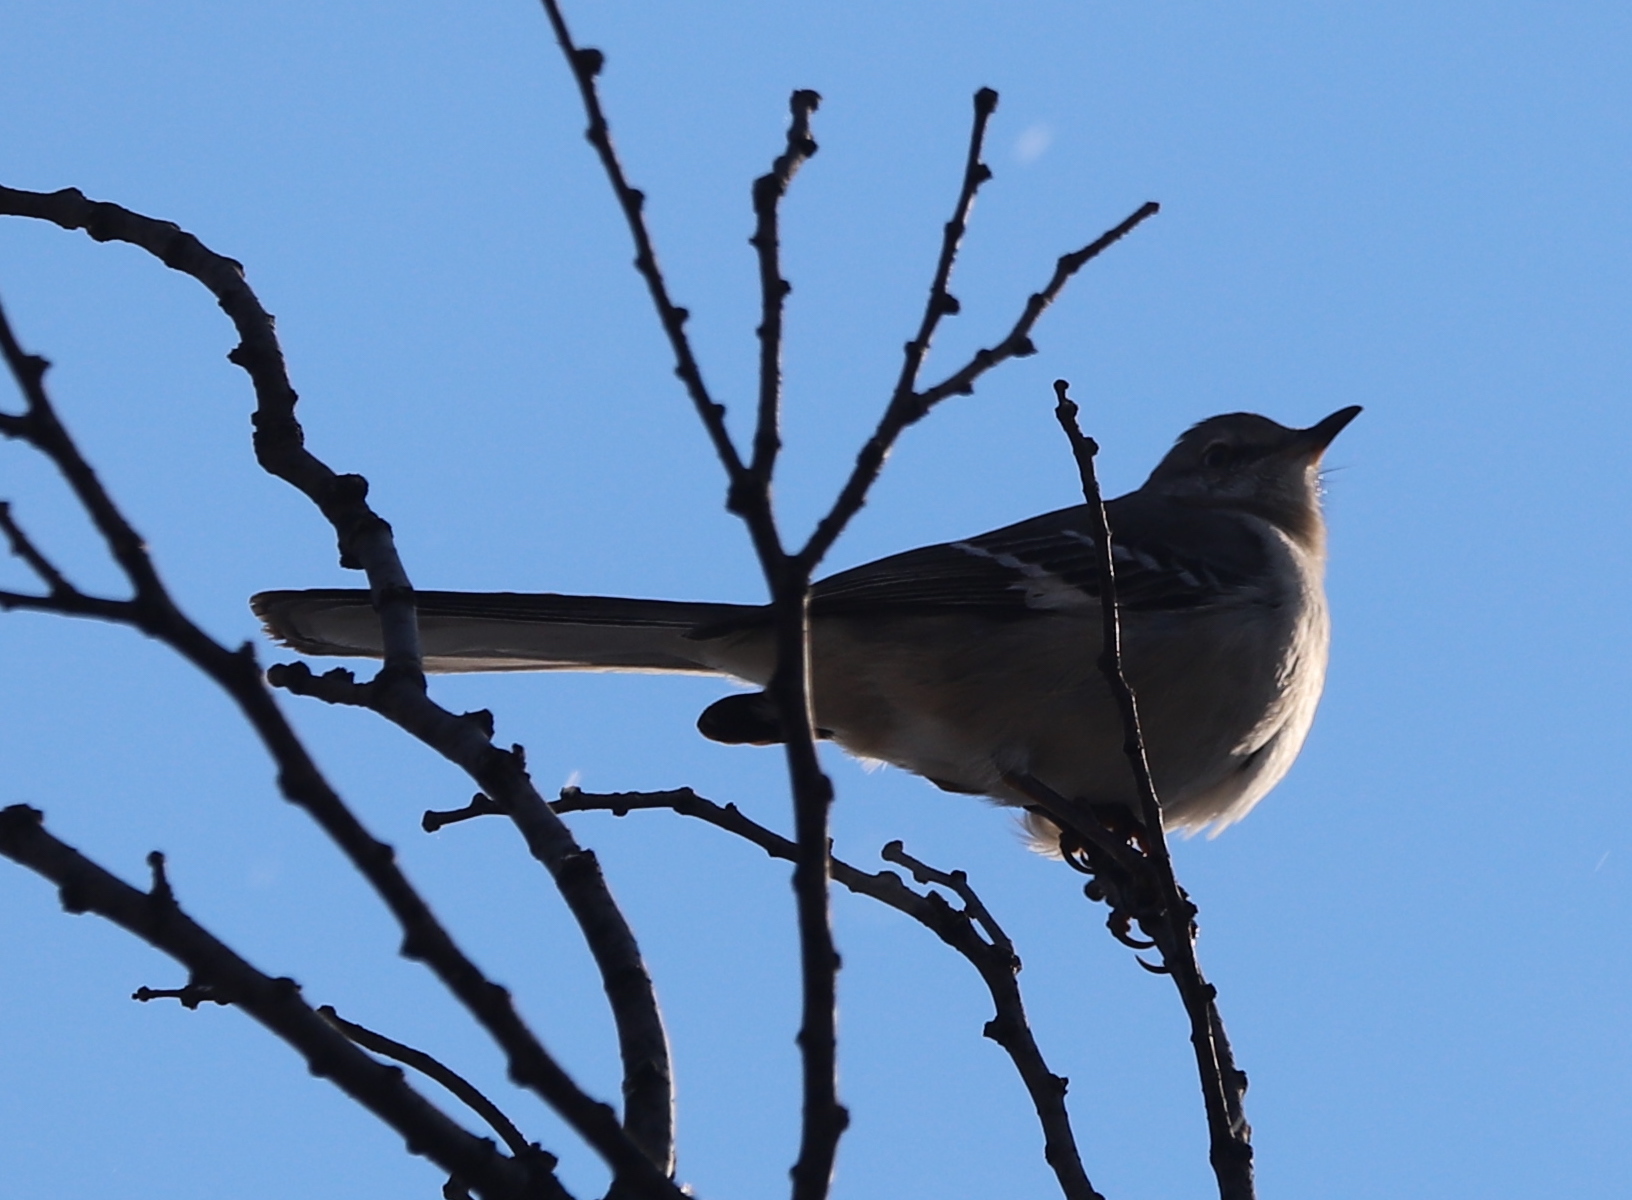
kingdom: Animalia
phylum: Chordata
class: Aves
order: Passeriformes
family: Mimidae
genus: Mimus
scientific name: Mimus polyglottos
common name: Northern mockingbird
